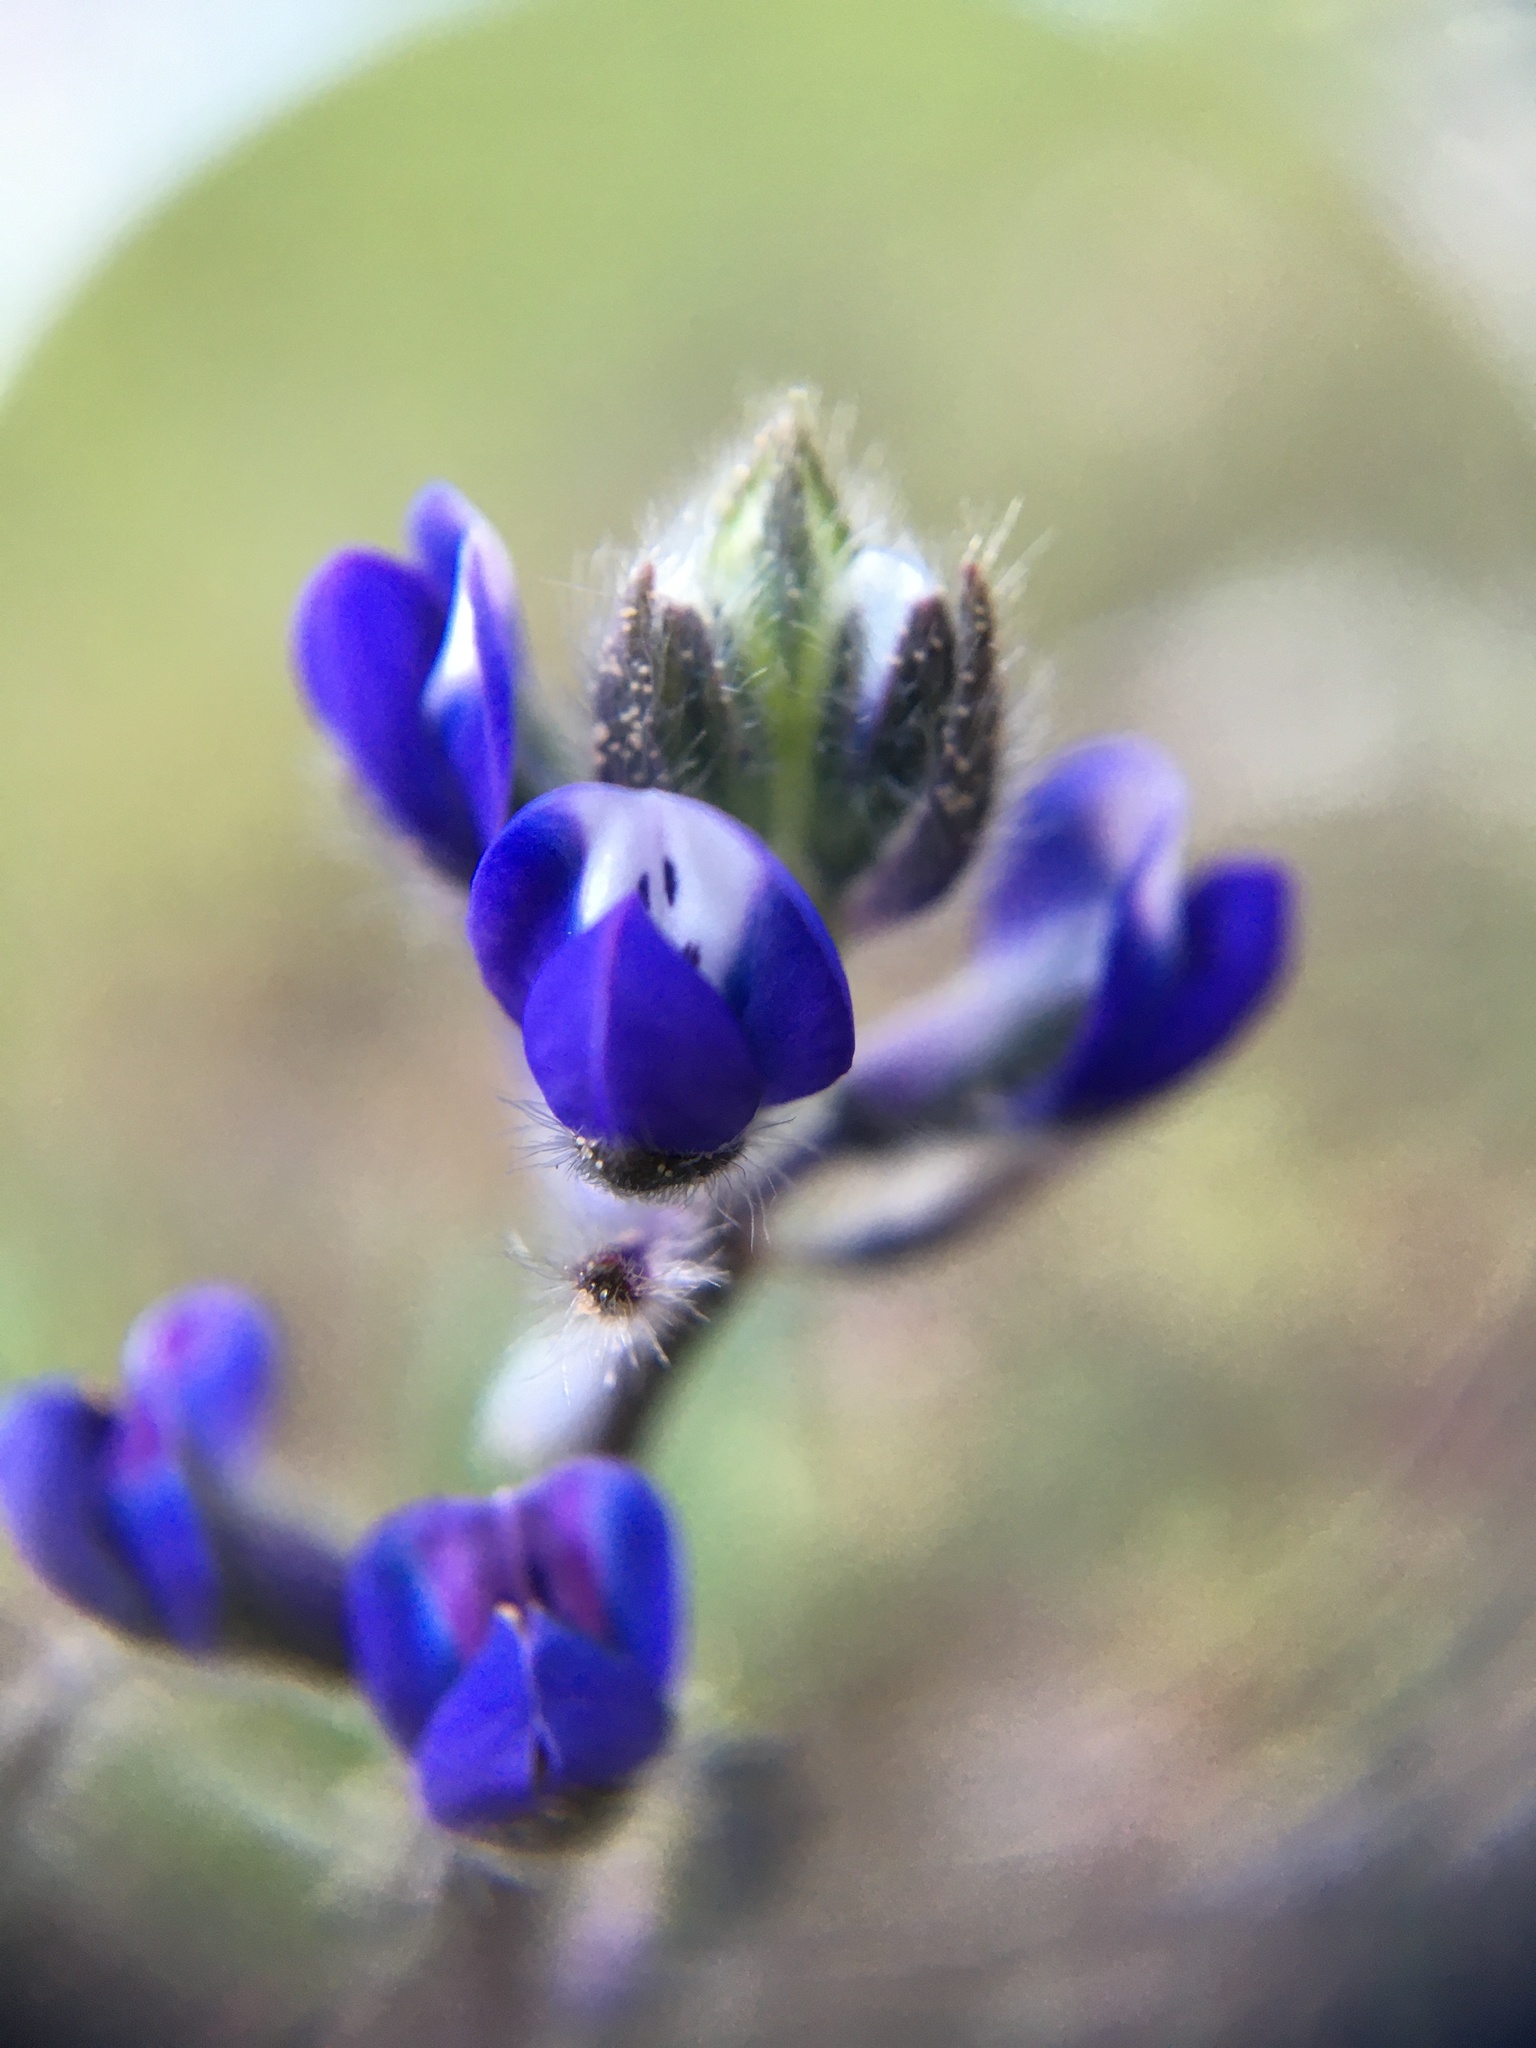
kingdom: Plantae
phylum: Tracheophyta
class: Magnoliopsida
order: Fabales
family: Fabaceae
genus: Lupinus
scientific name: Lupinus bicolor
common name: Miniature lupine
